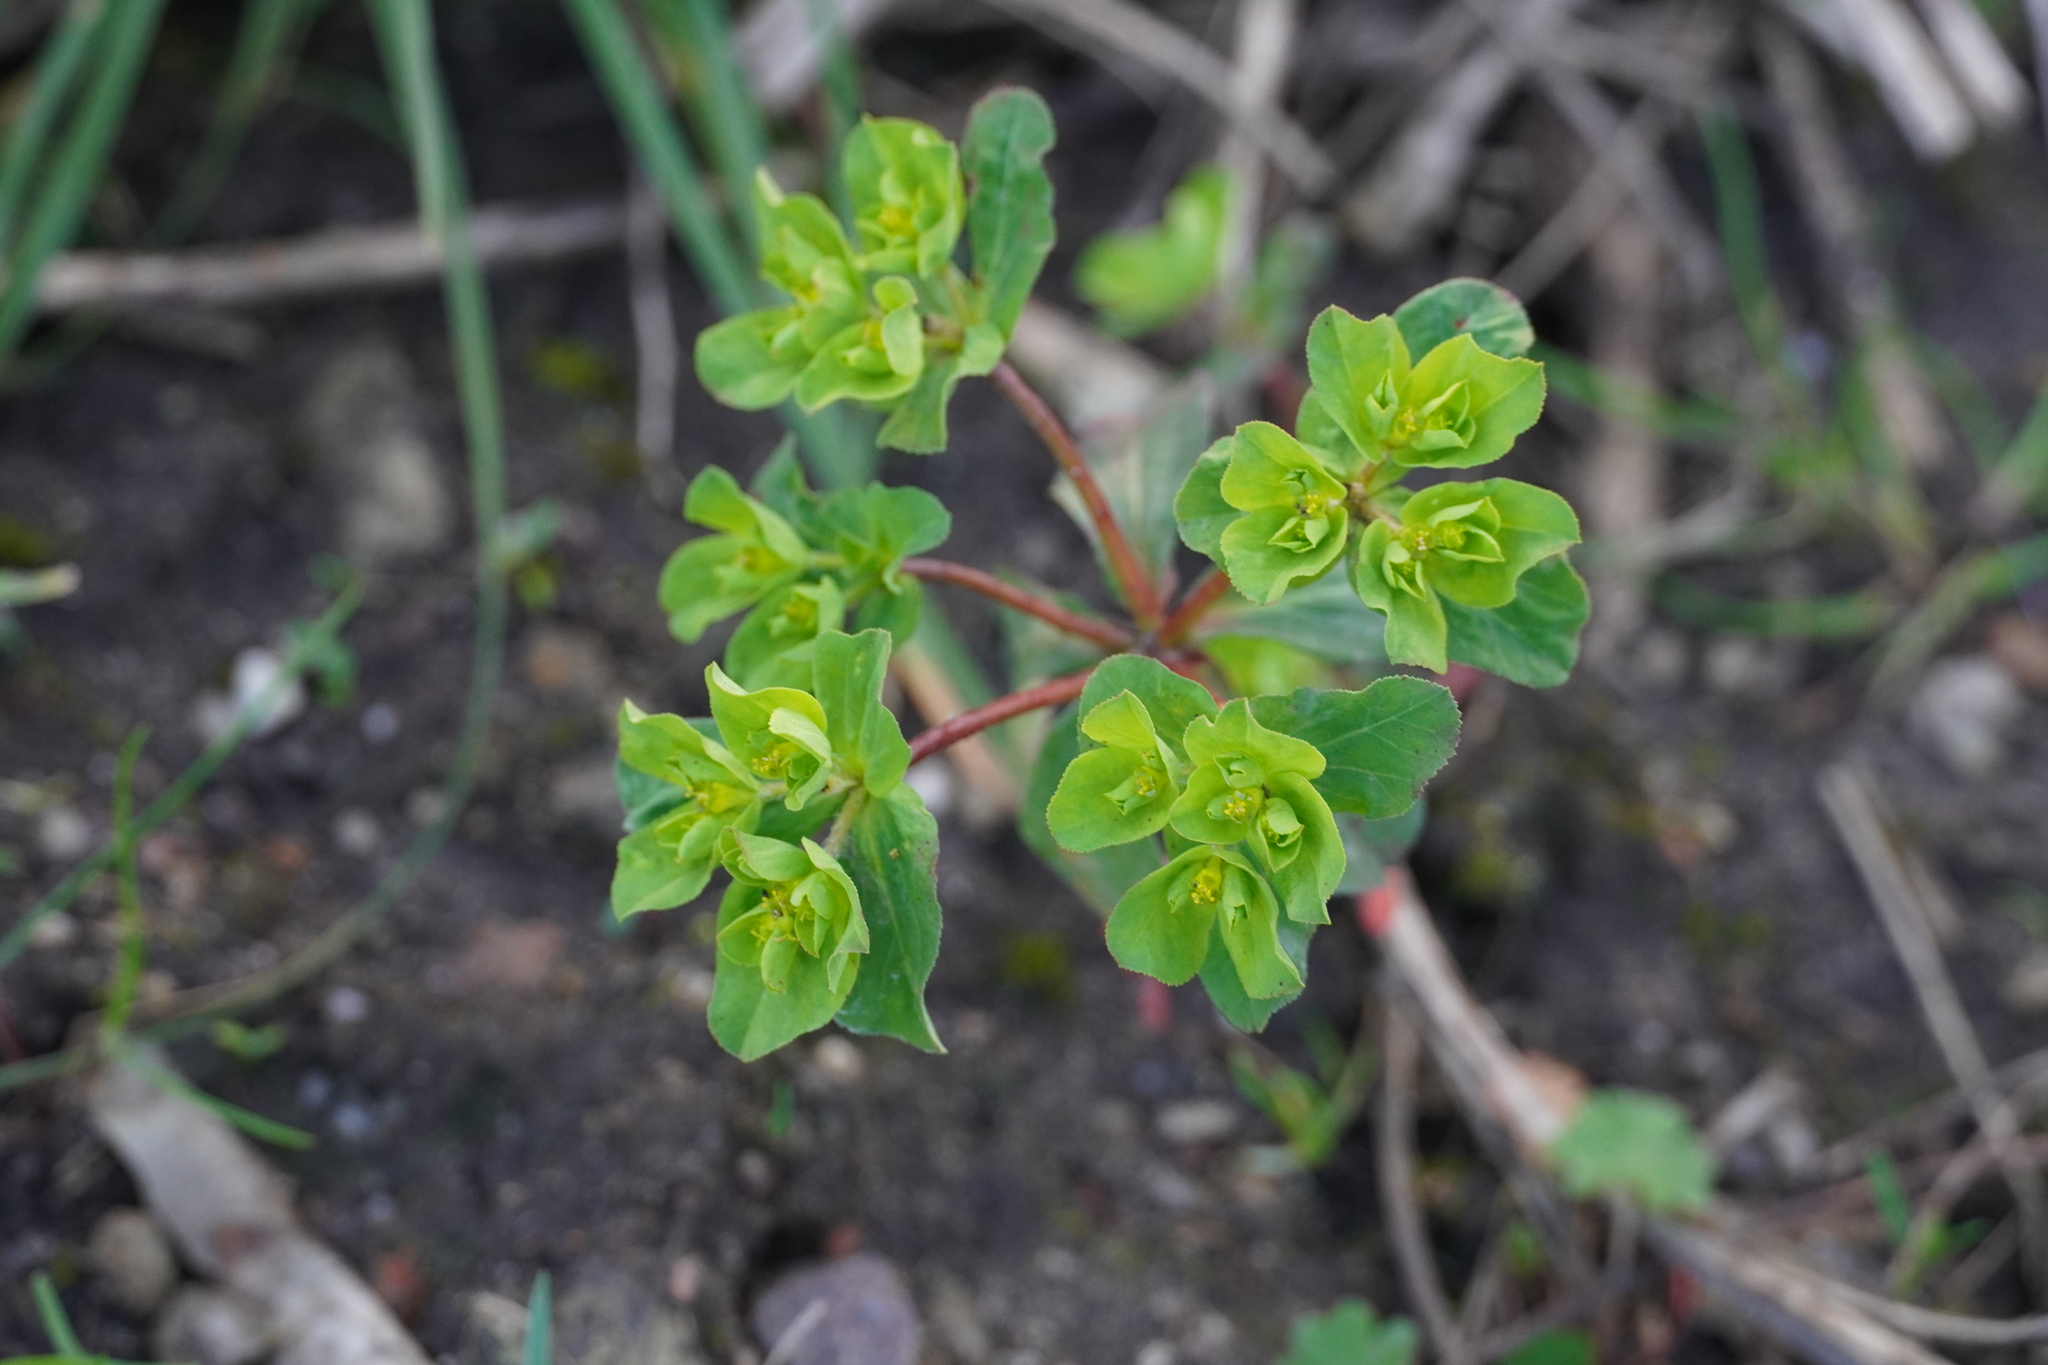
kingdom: Plantae
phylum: Tracheophyta
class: Magnoliopsida
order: Malpighiales
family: Euphorbiaceae
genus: Euphorbia
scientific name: Euphorbia helioscopia
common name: Sun spurge
